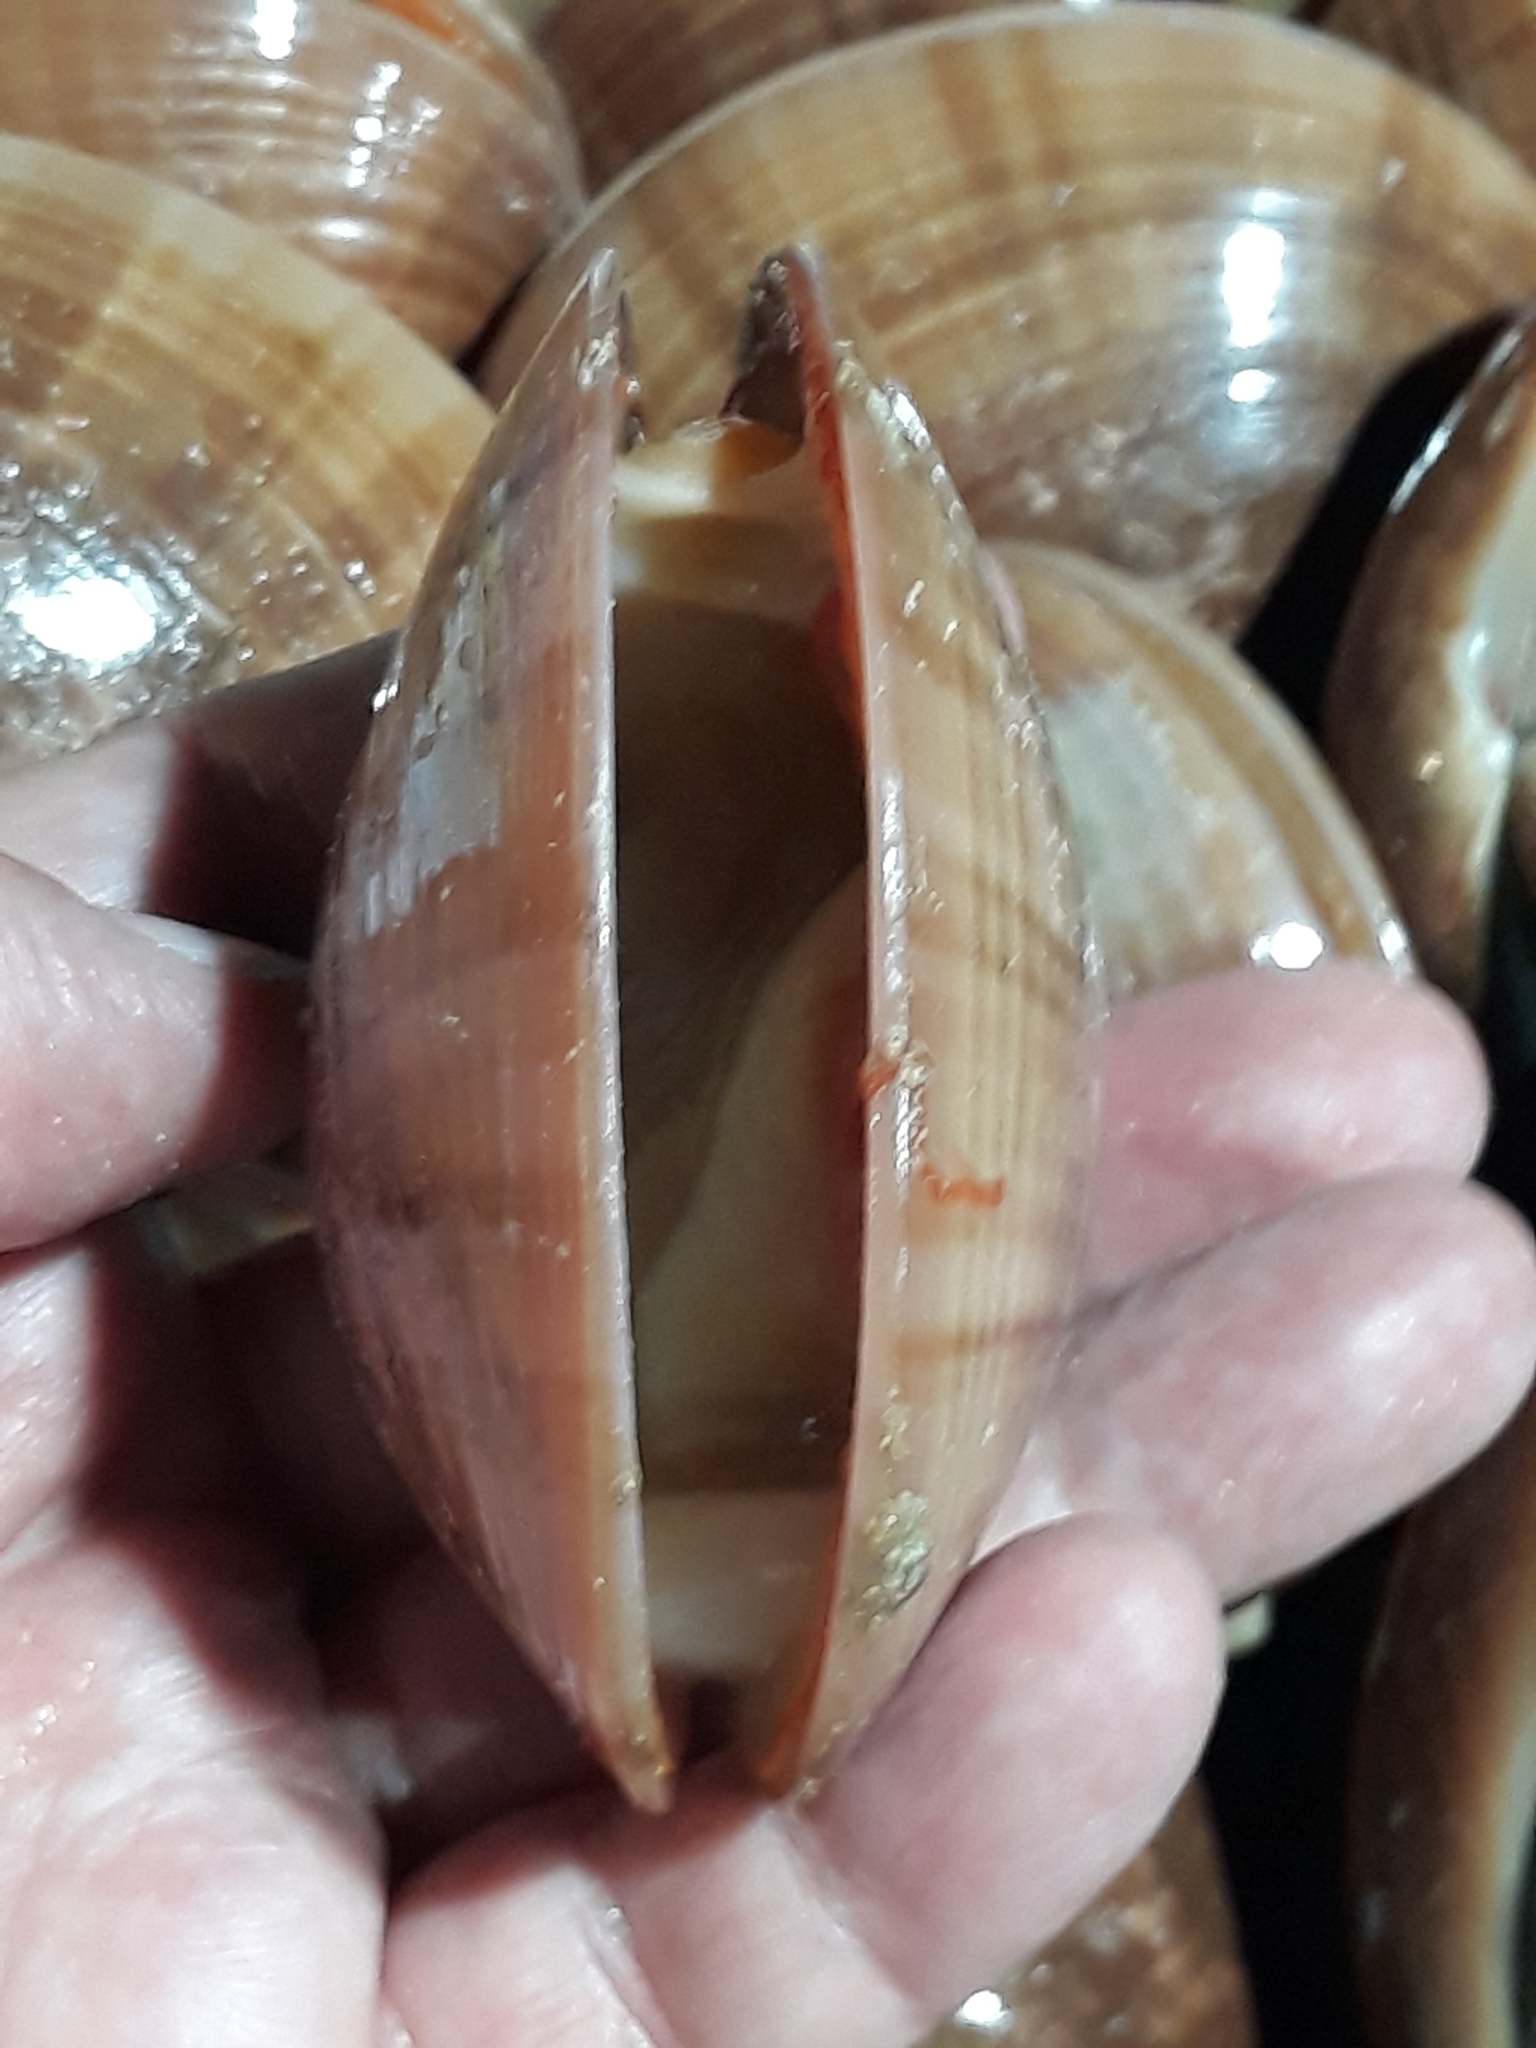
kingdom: Animalia
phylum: Mollusca
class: Bivalvia
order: Venerida
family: Veneridae
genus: Callista
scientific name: Callista chione
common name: Brown venus
